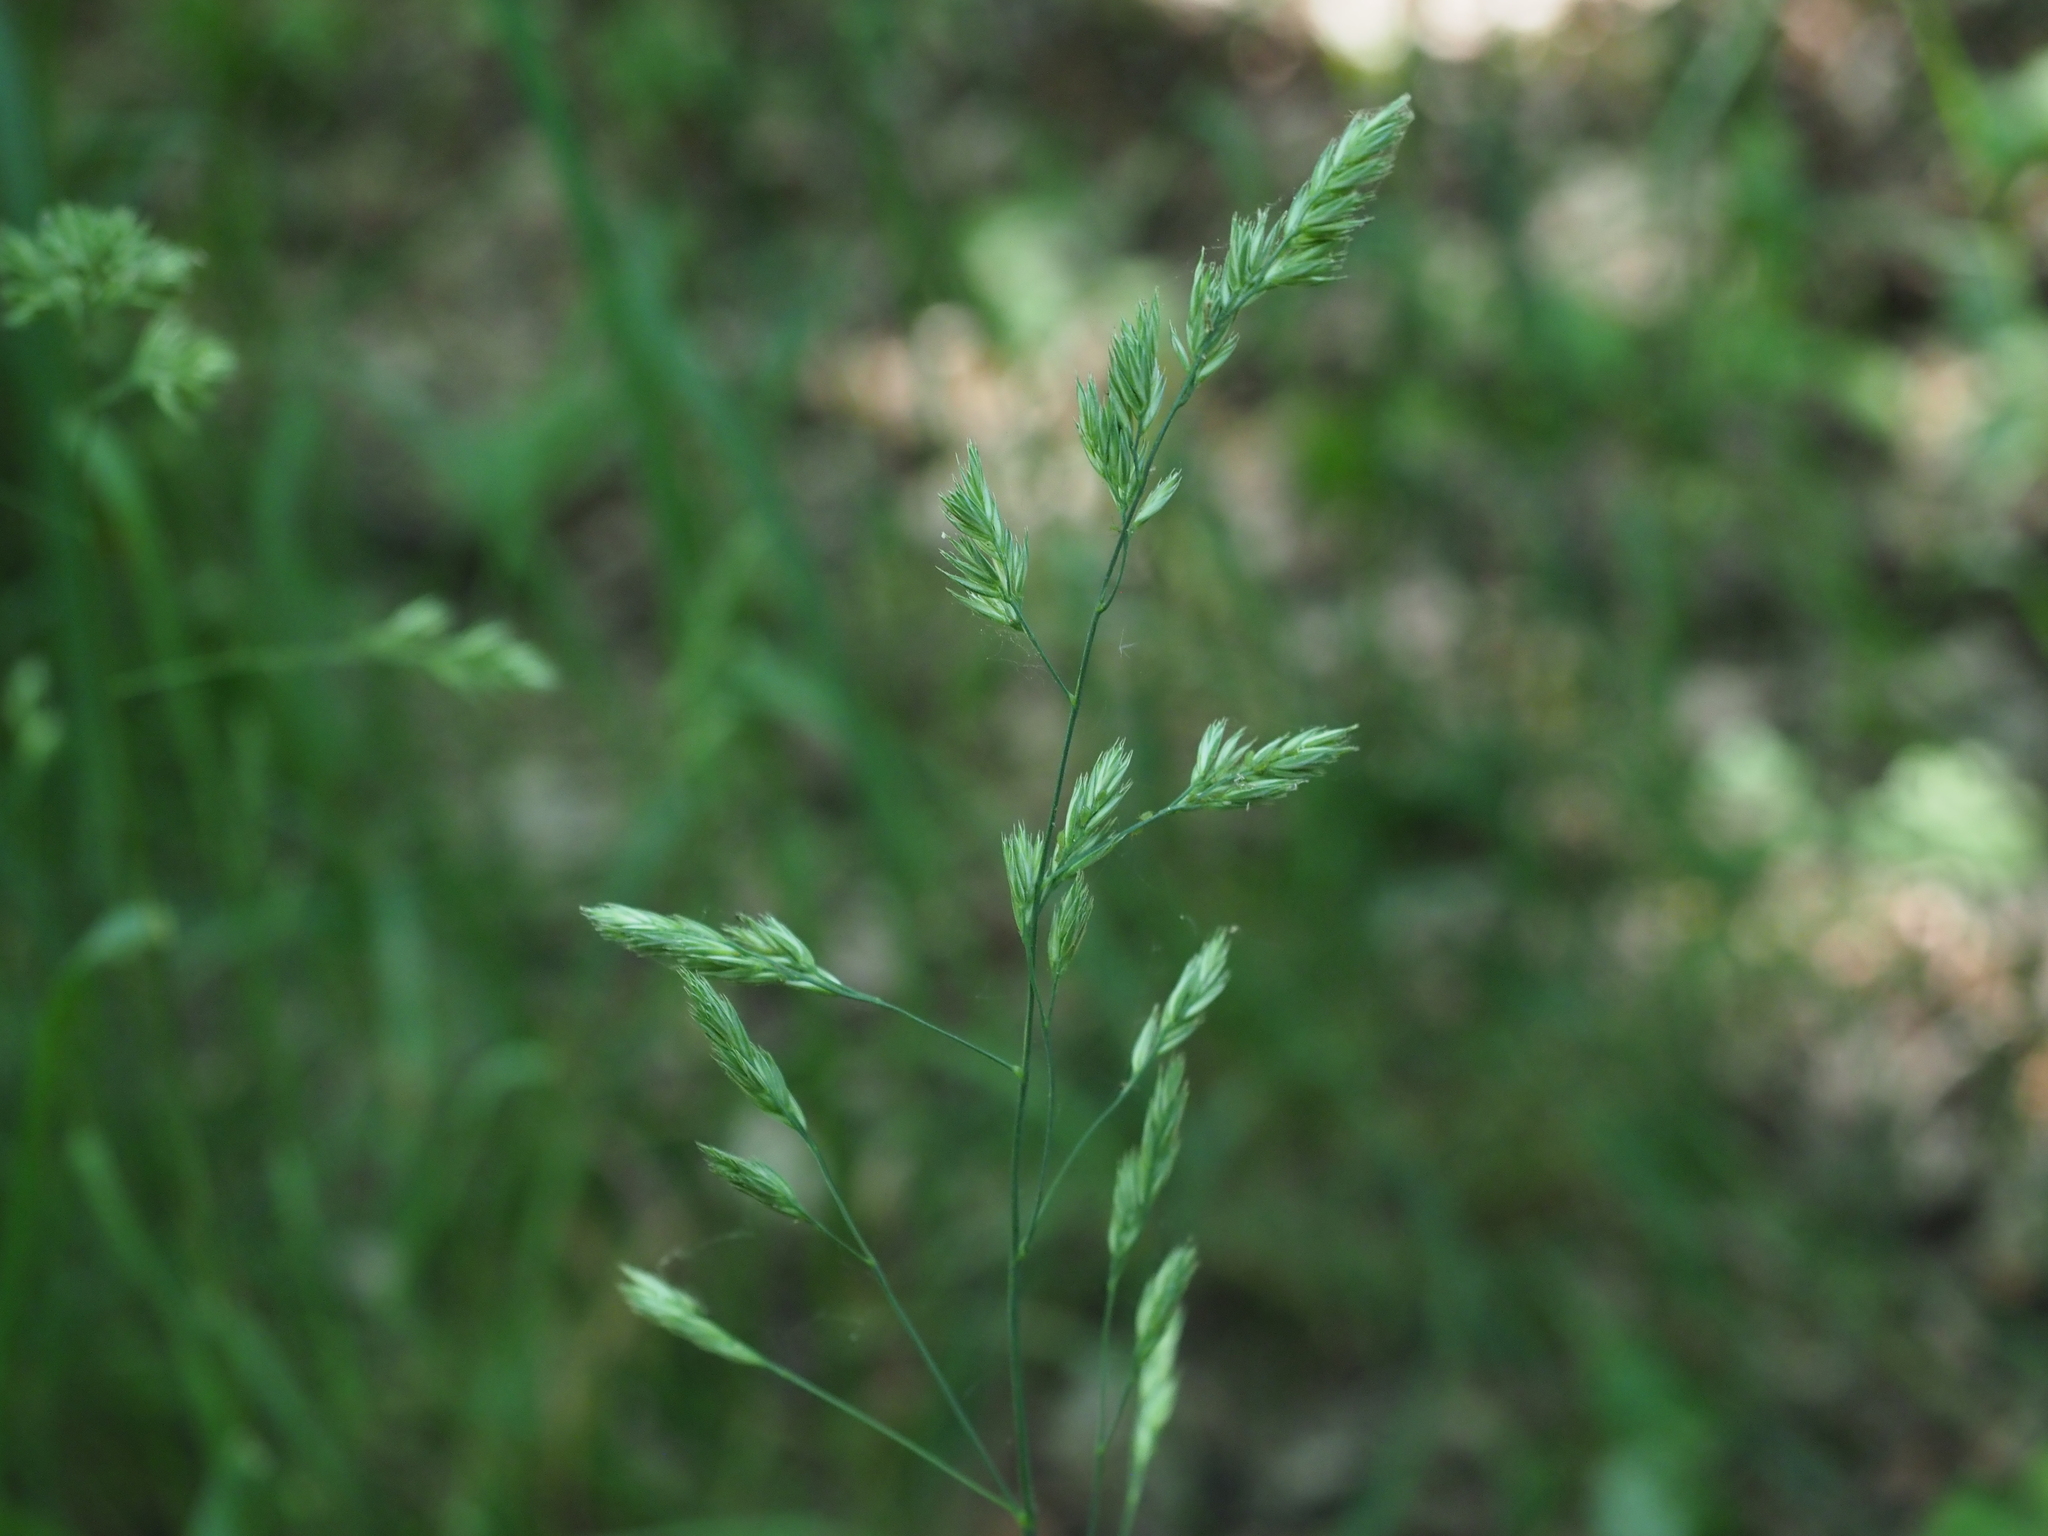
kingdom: Plantae
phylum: Tracheophyta
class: Liliopsida
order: Poales
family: Poaceae
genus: Dactylis
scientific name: Dactylis glomerata
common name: Orchardgrass
